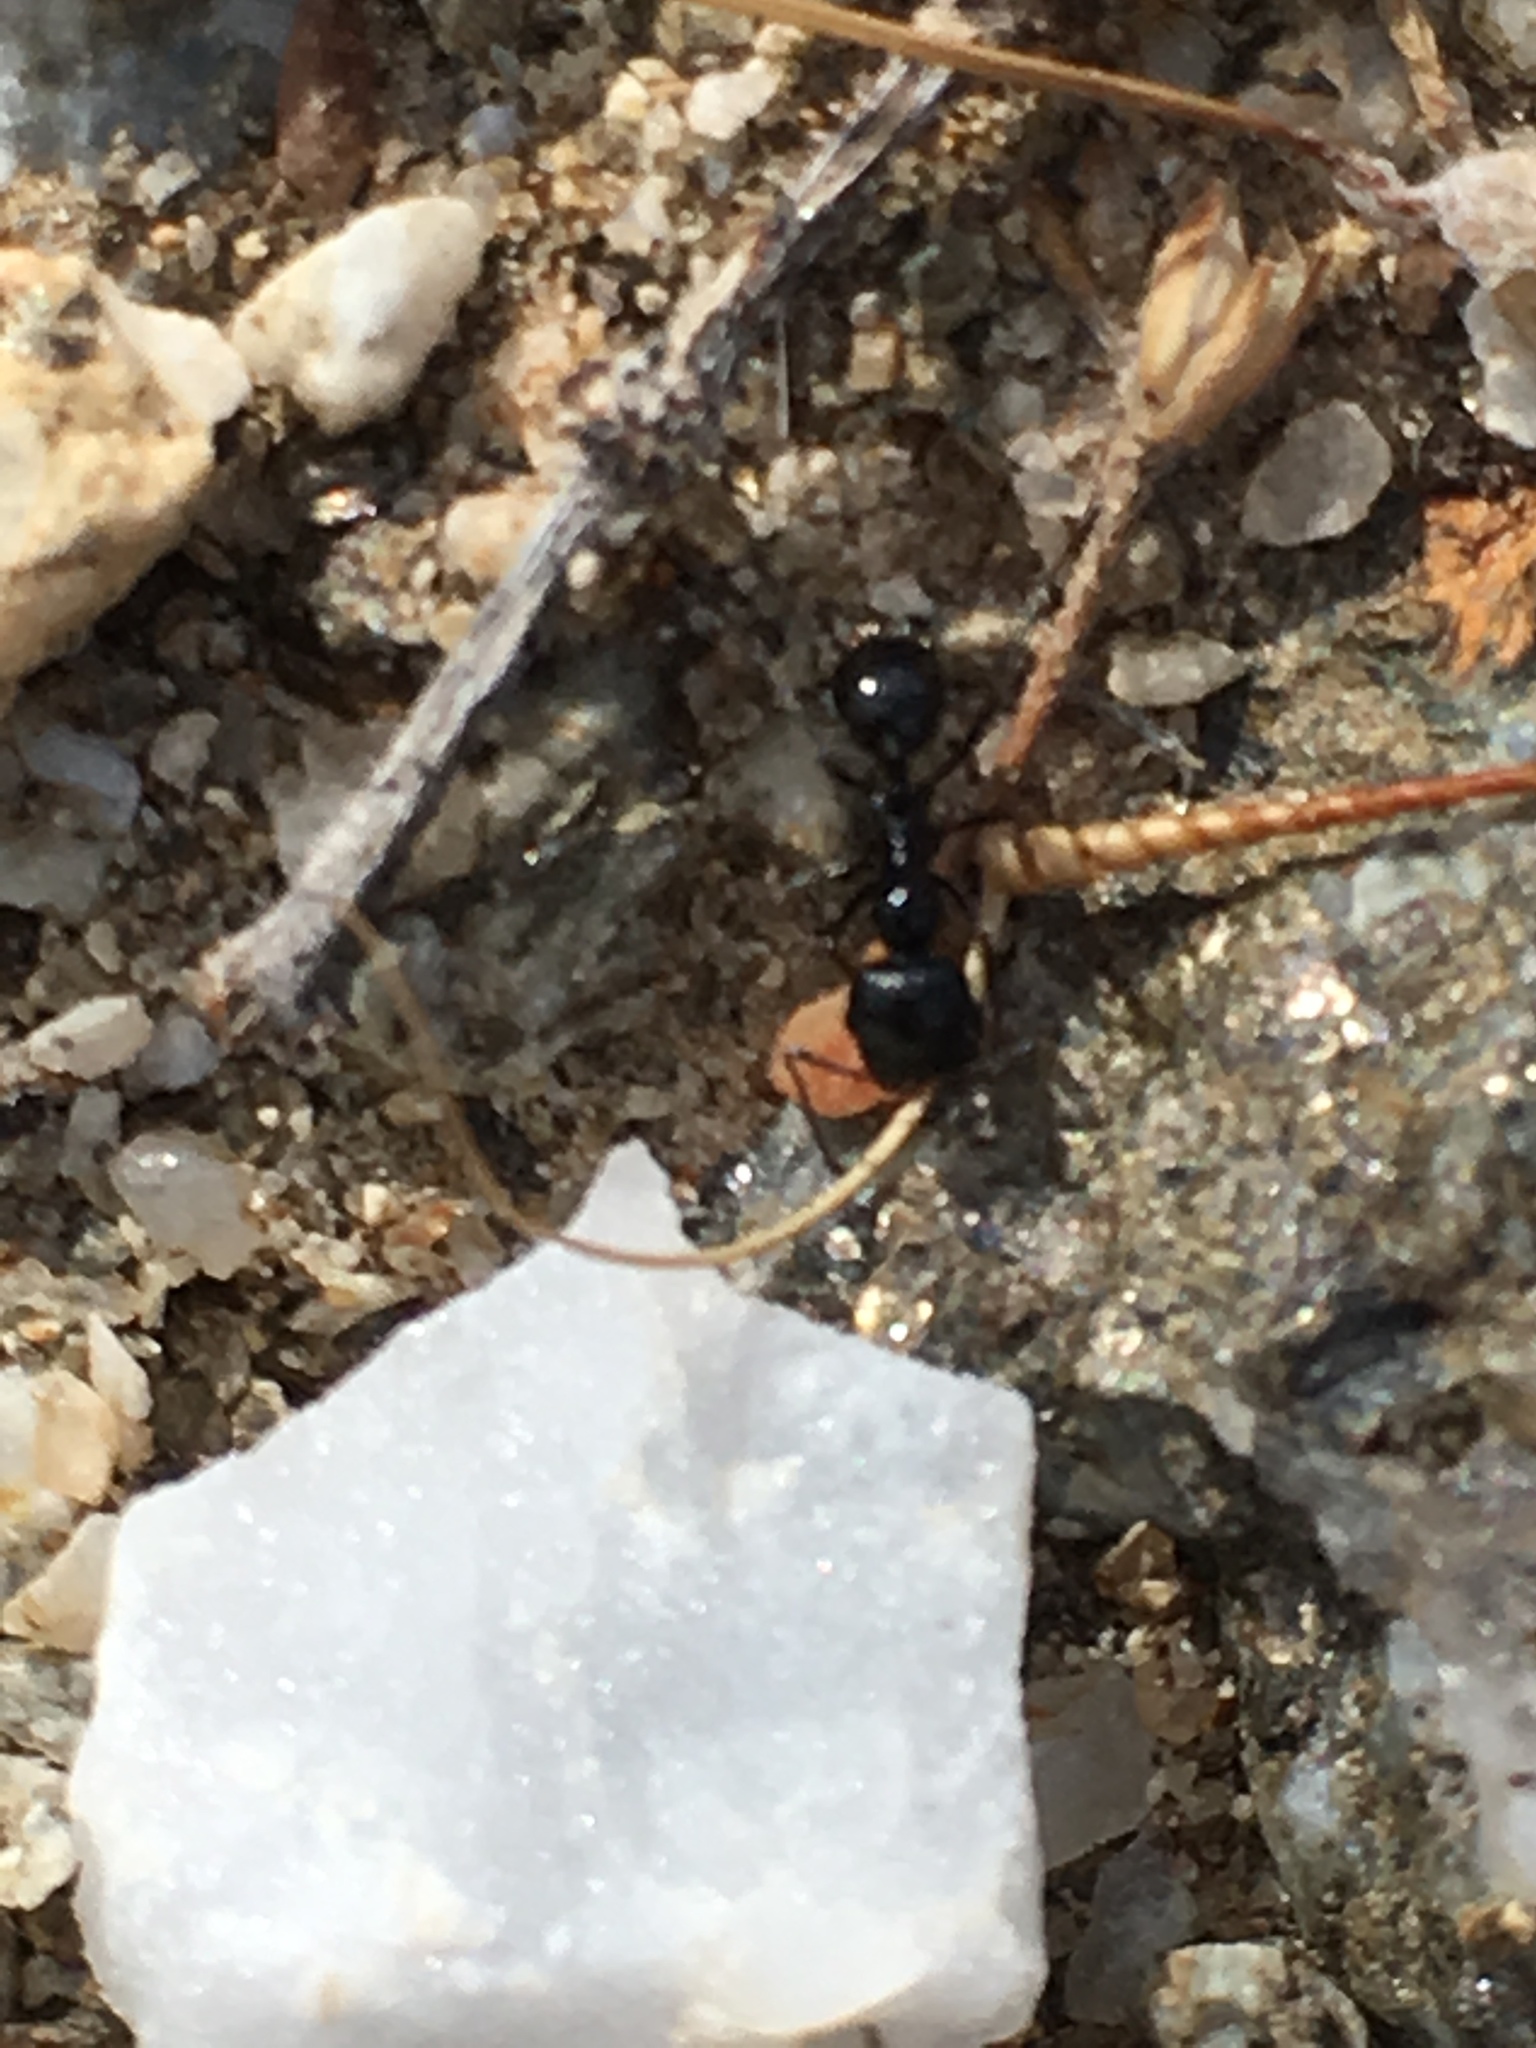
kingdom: Animalia
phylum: Arthropoda
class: Insecta
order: Hymenoptera
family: Formicidae
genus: Messor
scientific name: Messor pergandei
